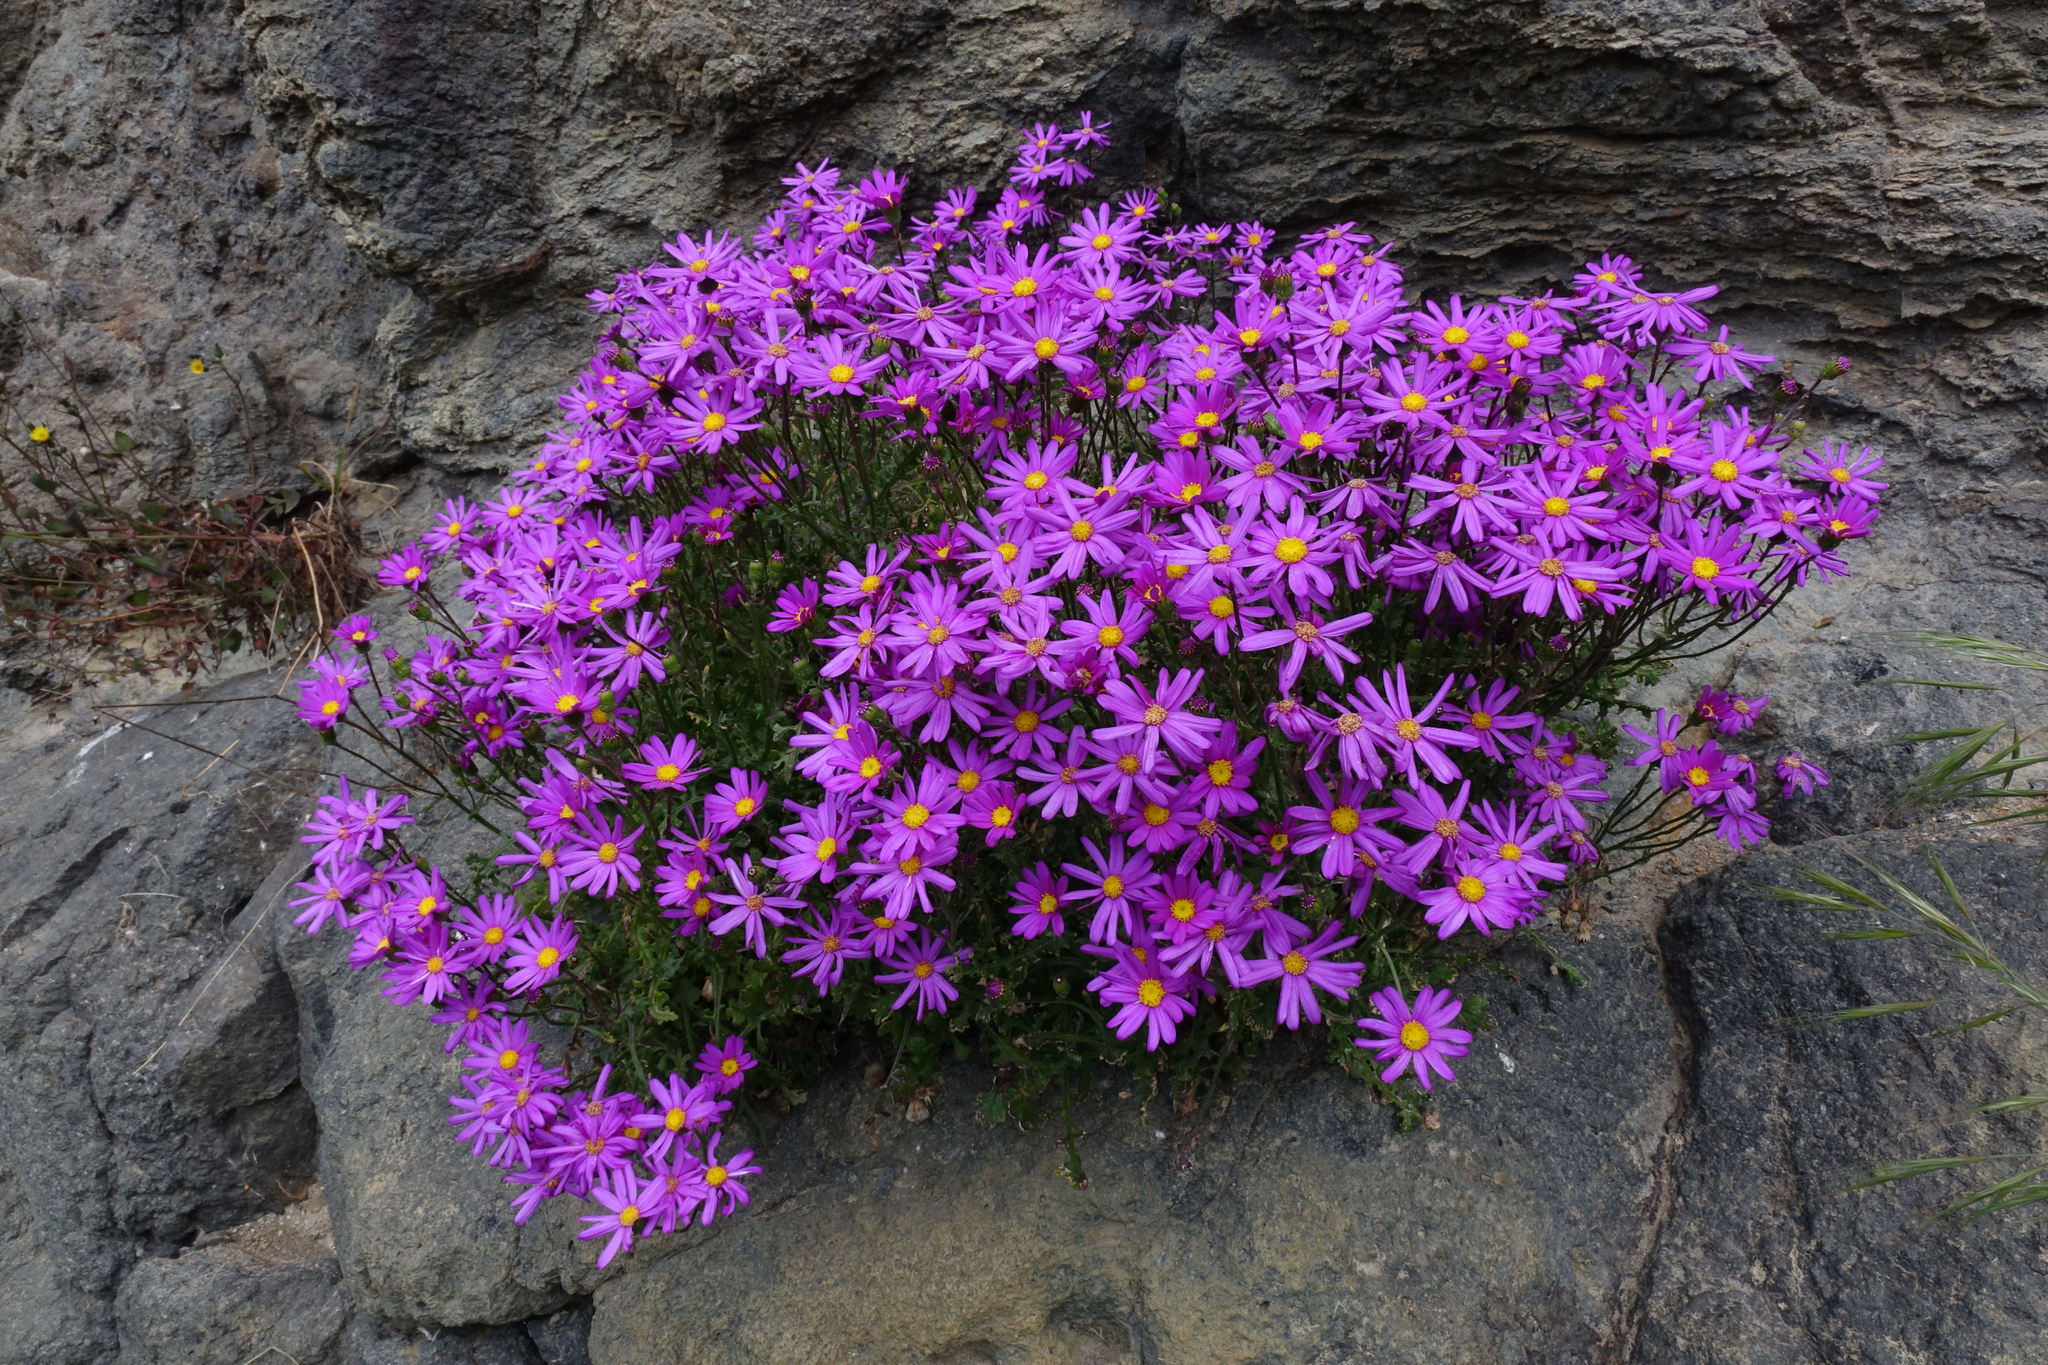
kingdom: Plantae
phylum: Tracheophyta
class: Magnoliopsida
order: Asterales
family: Asteraceae
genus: Senecio
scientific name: Senecio elegans
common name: Purple groundsel
